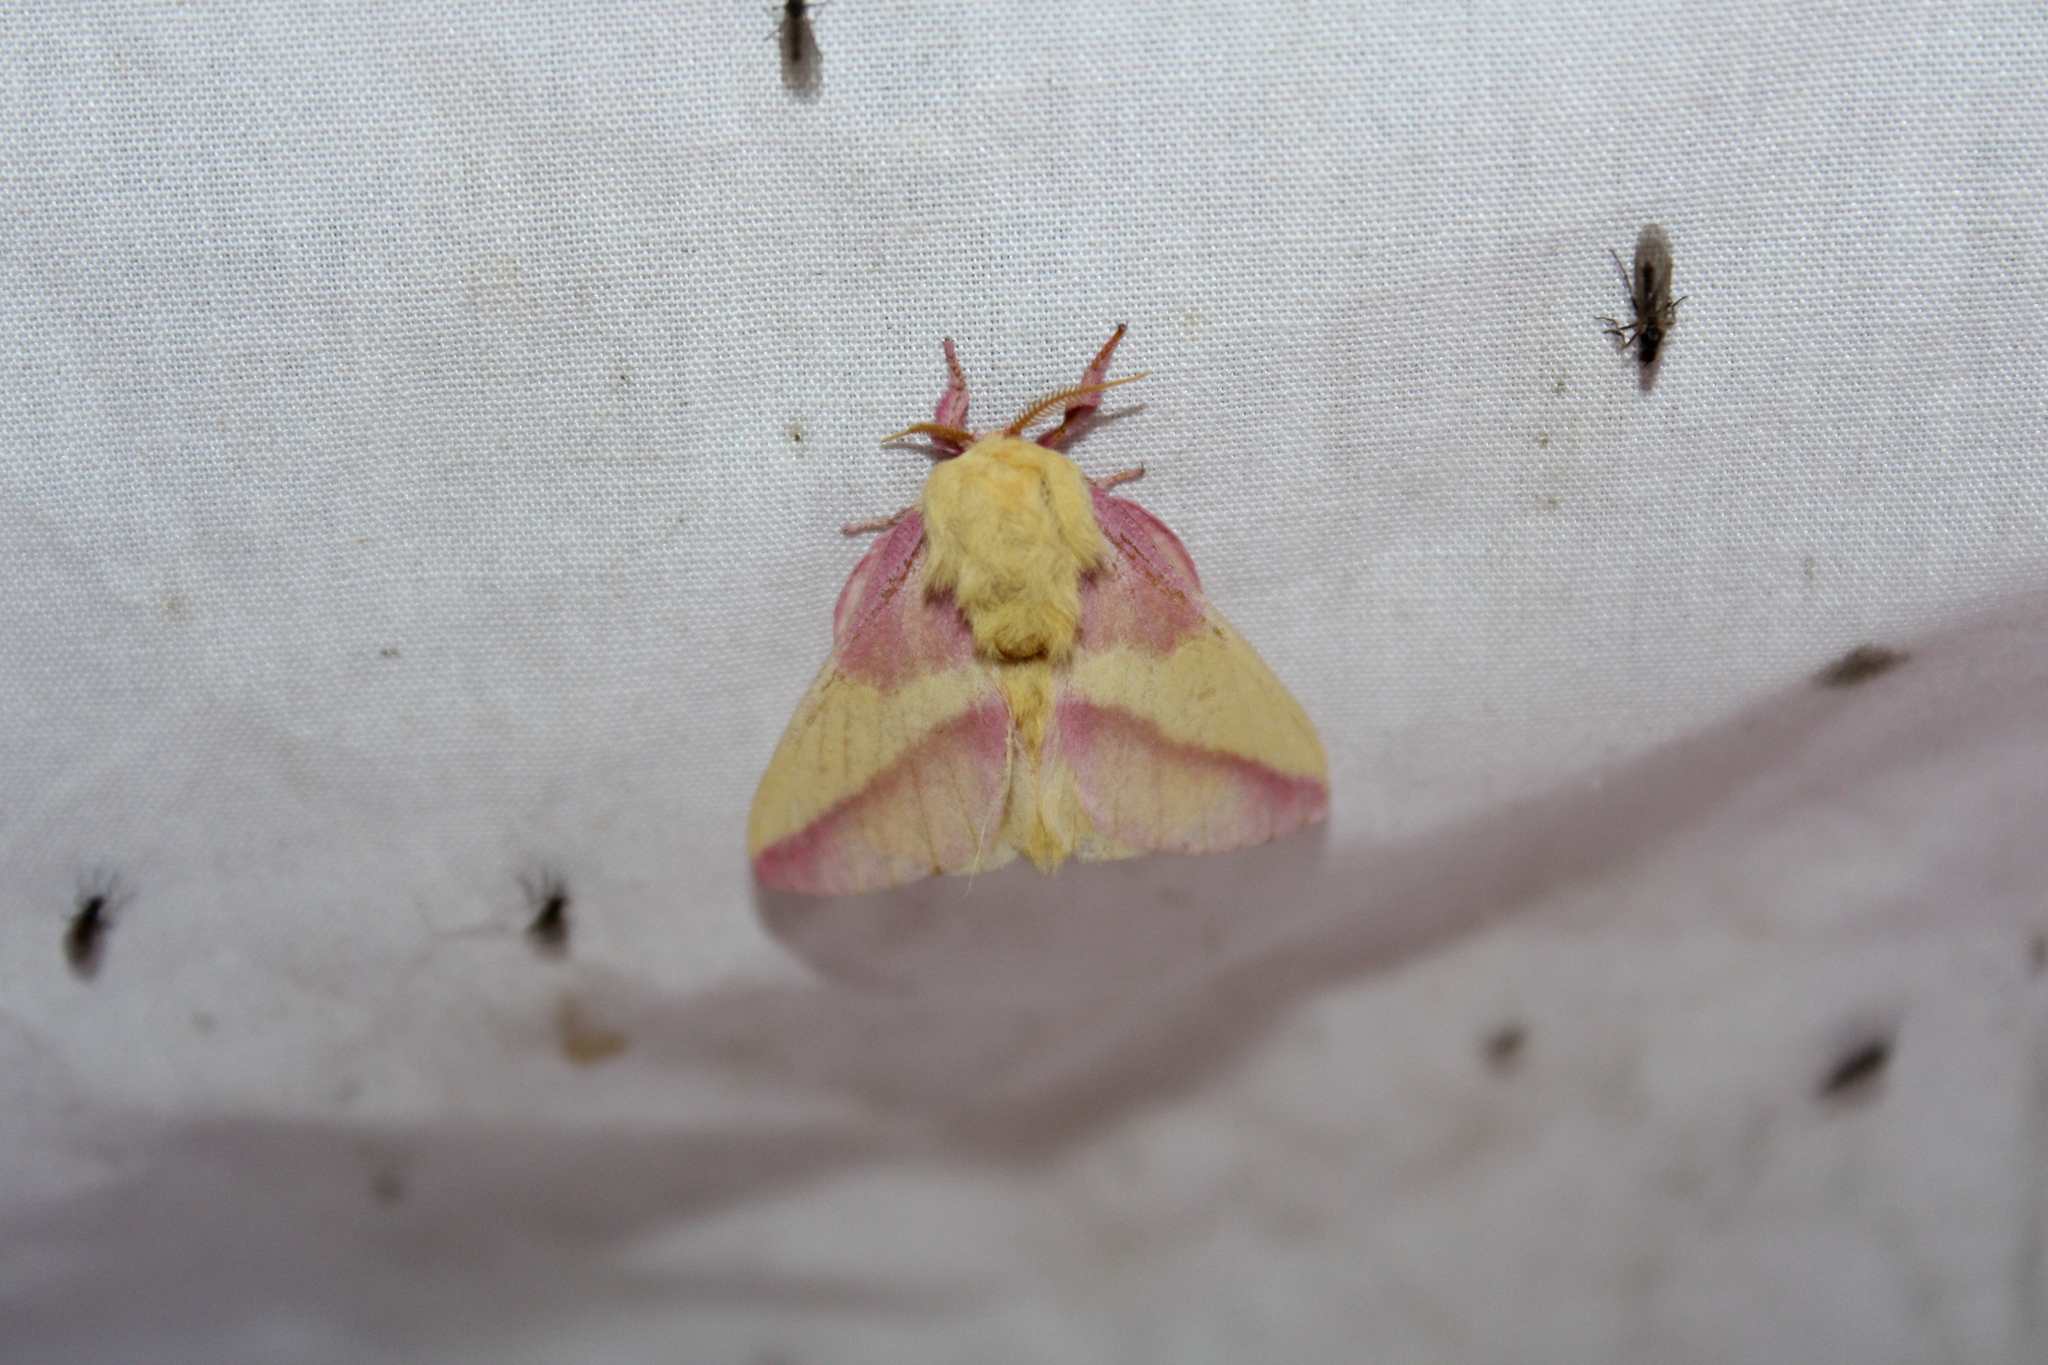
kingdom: Animalia
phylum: Arthropoda
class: Insecta
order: Lepidoptera
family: Saturniidae
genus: Dryocampa
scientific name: Dryocampa rubicunda
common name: Rosy maple moth
